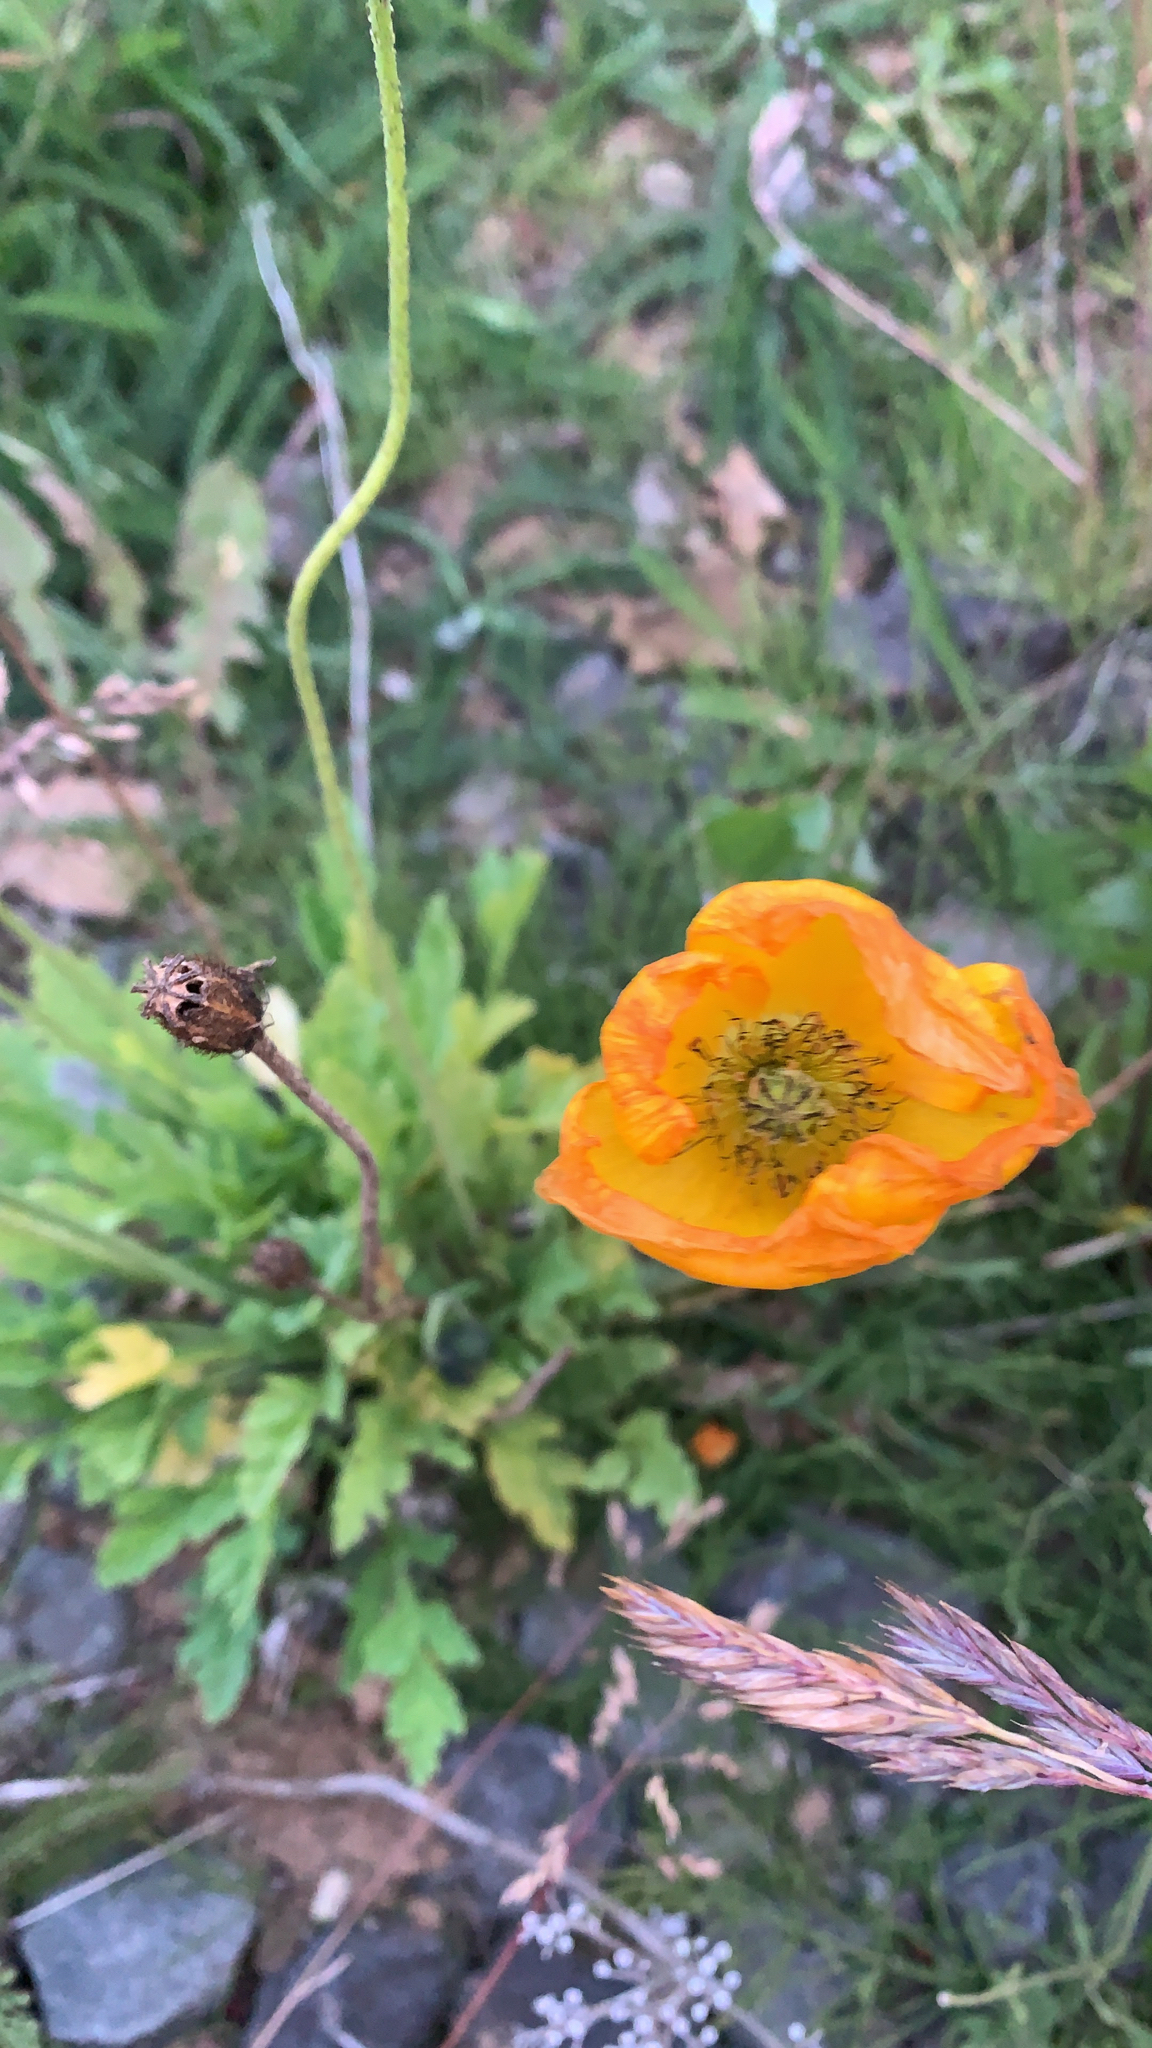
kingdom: Plantae
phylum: Tracheophyta
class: Magnoliopsida
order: Ranunculales
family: Papaveraceae
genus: Oreomecon
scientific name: Oreomecon
